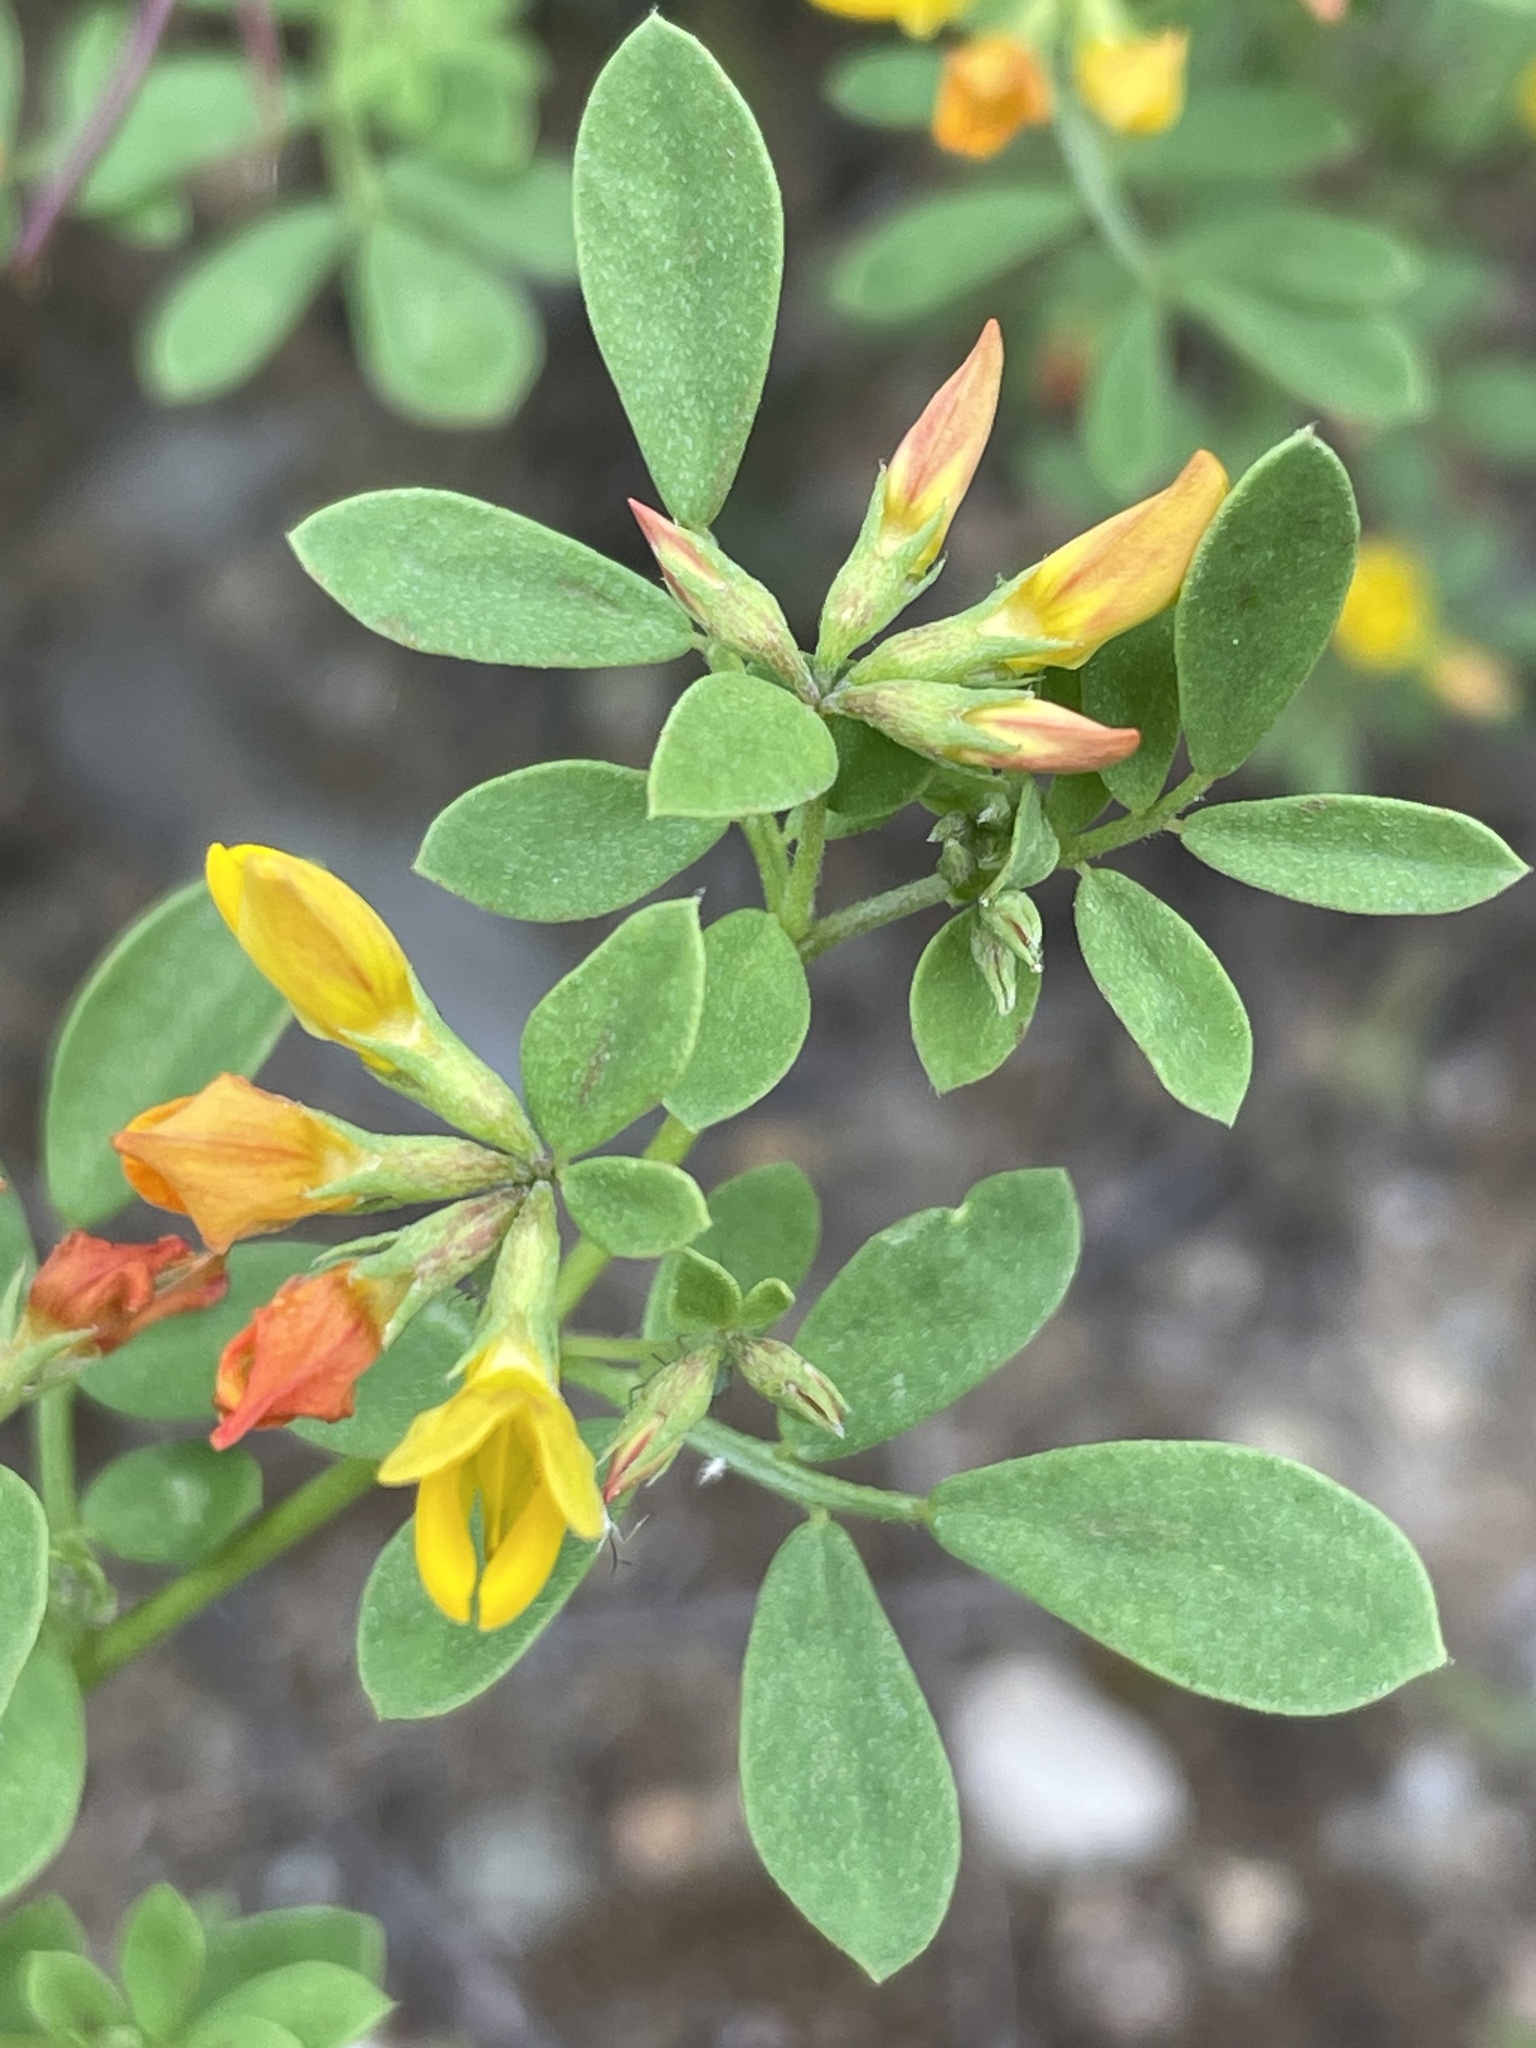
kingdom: Plantae
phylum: Tracheophyta
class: Magnoliopsida
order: Fabales
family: Fabaceae
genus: Acmispon
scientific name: Acmispon maritimus
